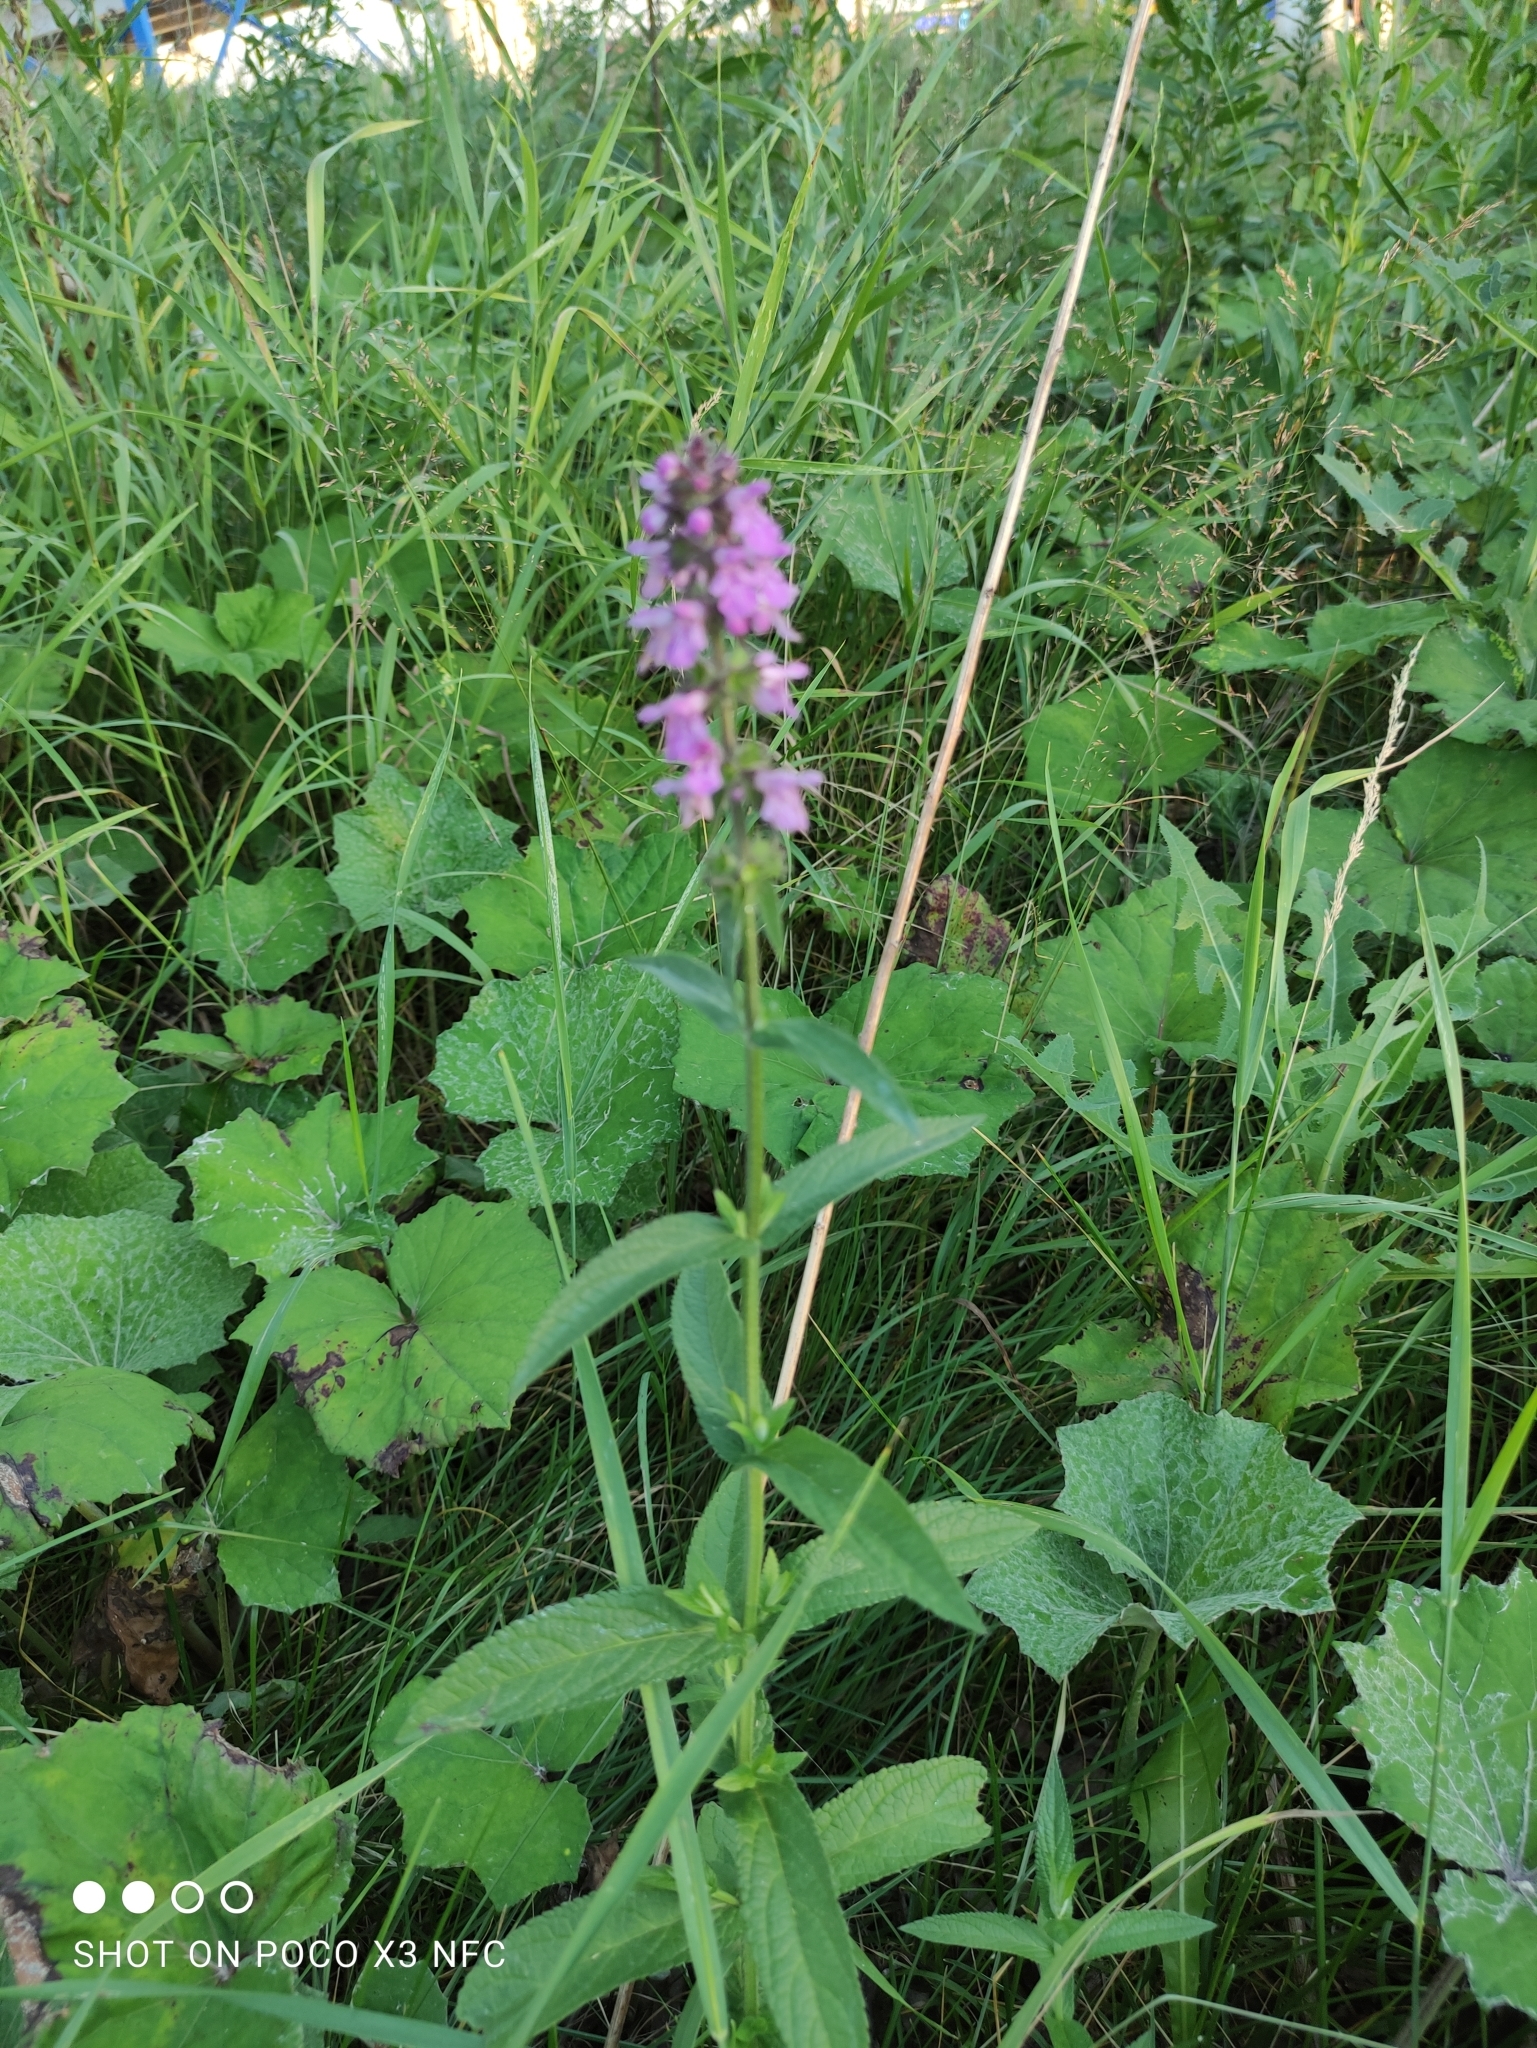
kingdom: Plantae
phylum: Tracheophyta
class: Magnoliopsida
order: Lamiales
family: Lamiaceae
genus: Stachys
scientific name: Stachys palustris
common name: Marsh woundwort
